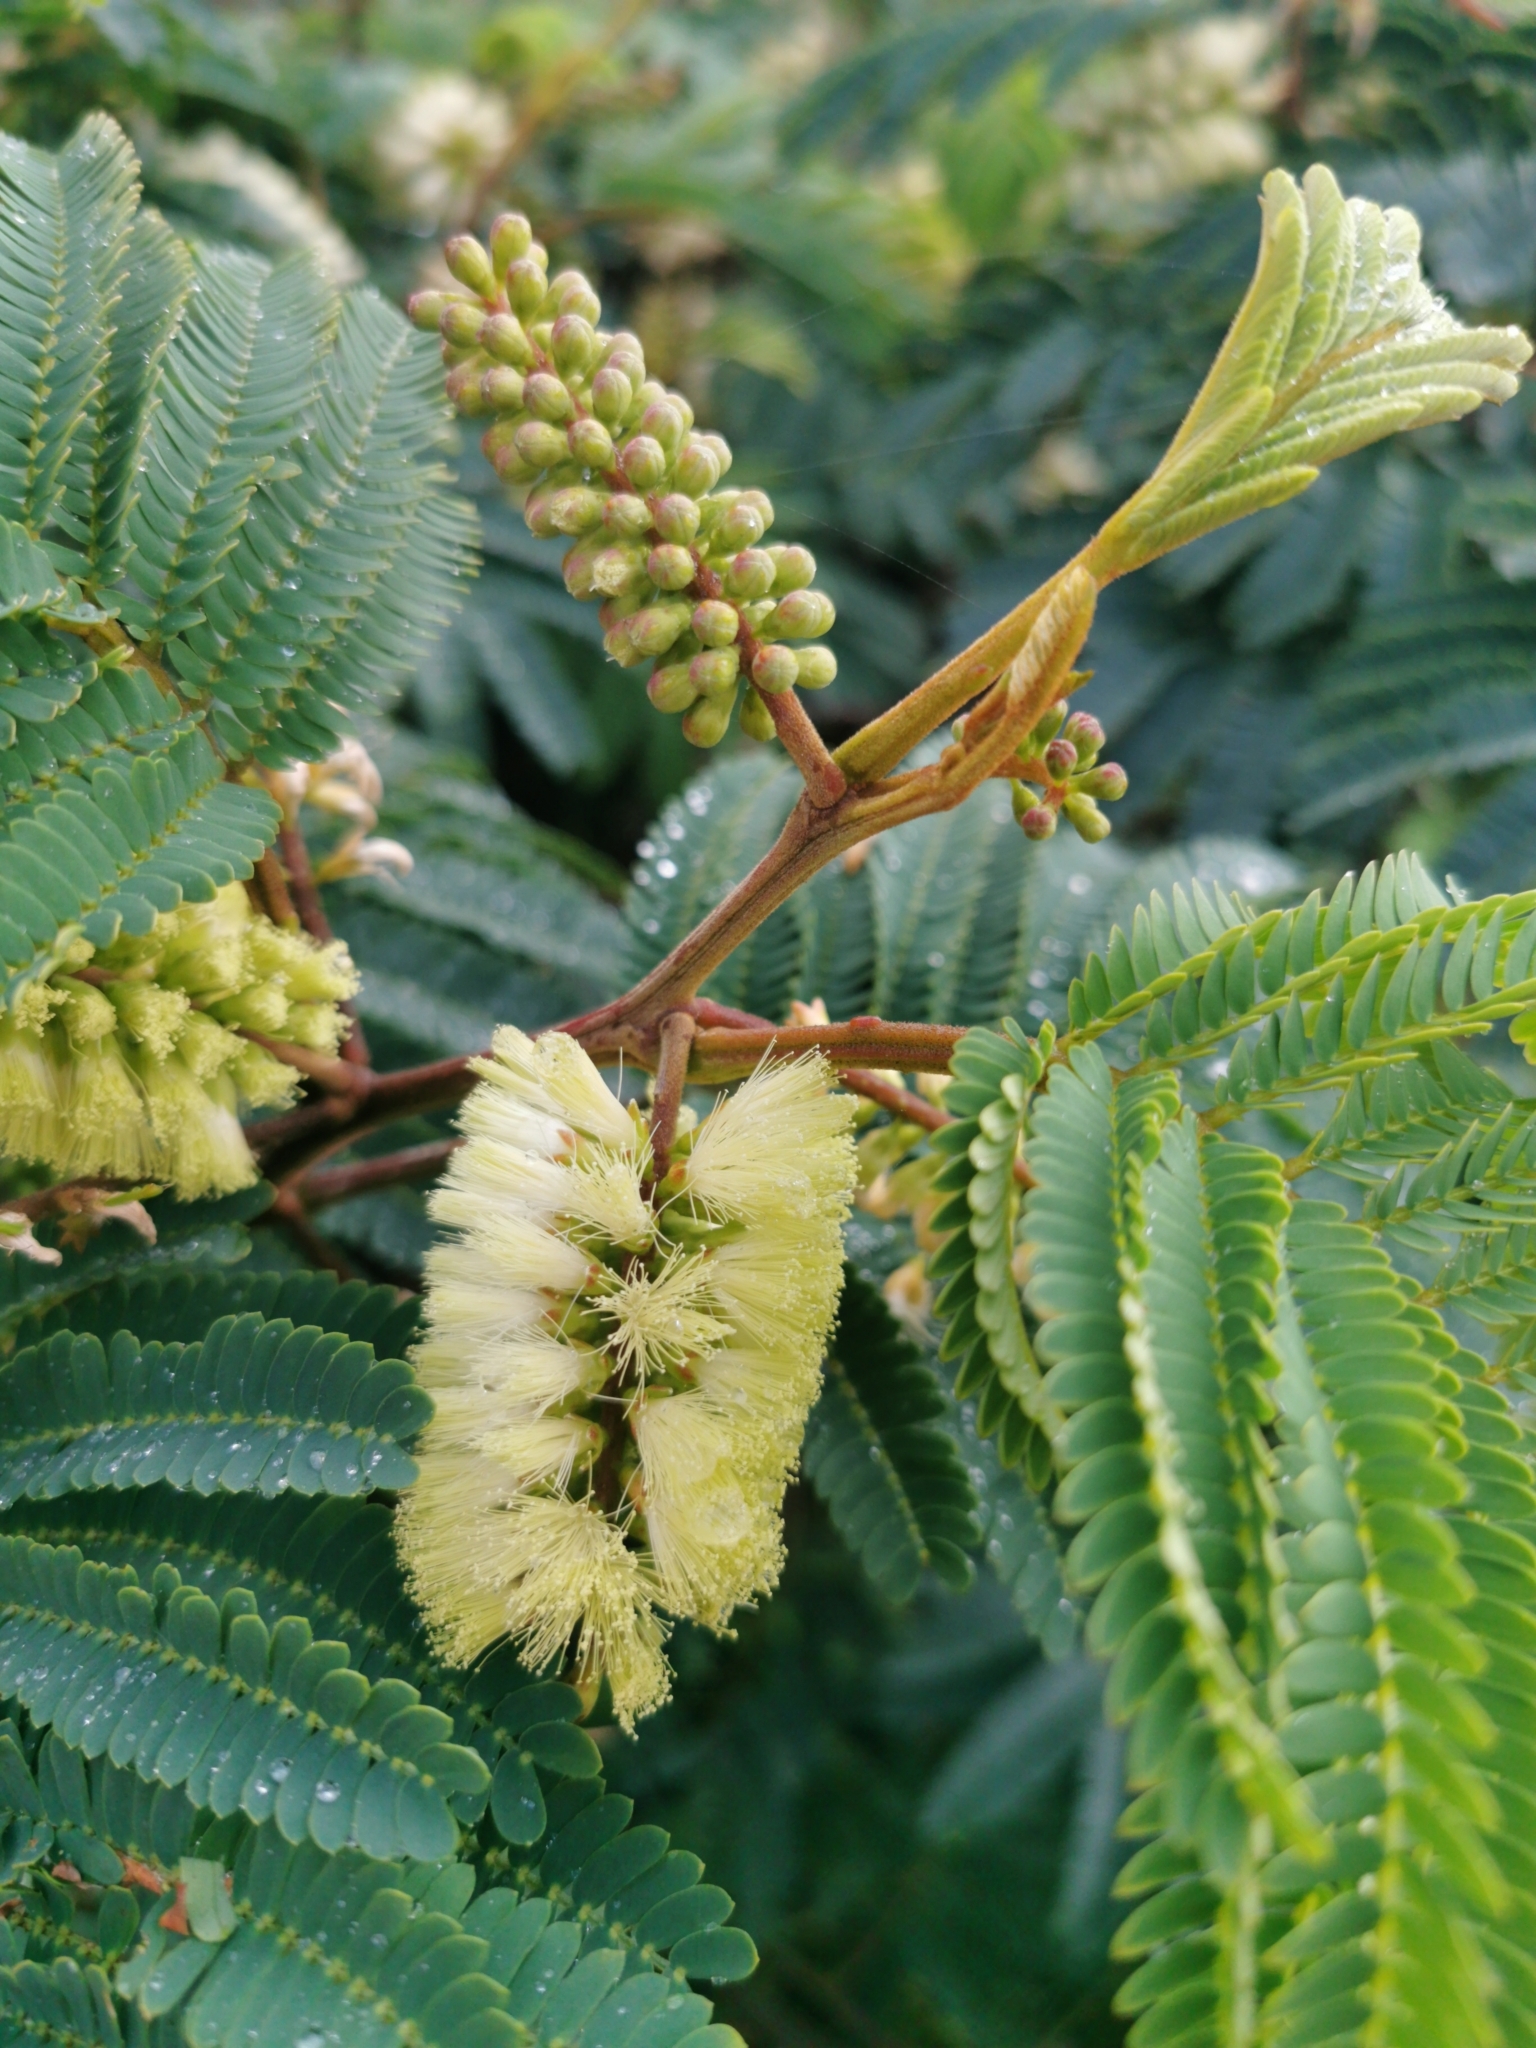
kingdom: Plantae
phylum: Tracheophyta
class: Magnoliopsida
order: Fabales
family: Fabaceae
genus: Paraserianthes
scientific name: Paraserianthes lophantha
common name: Plume albizia
